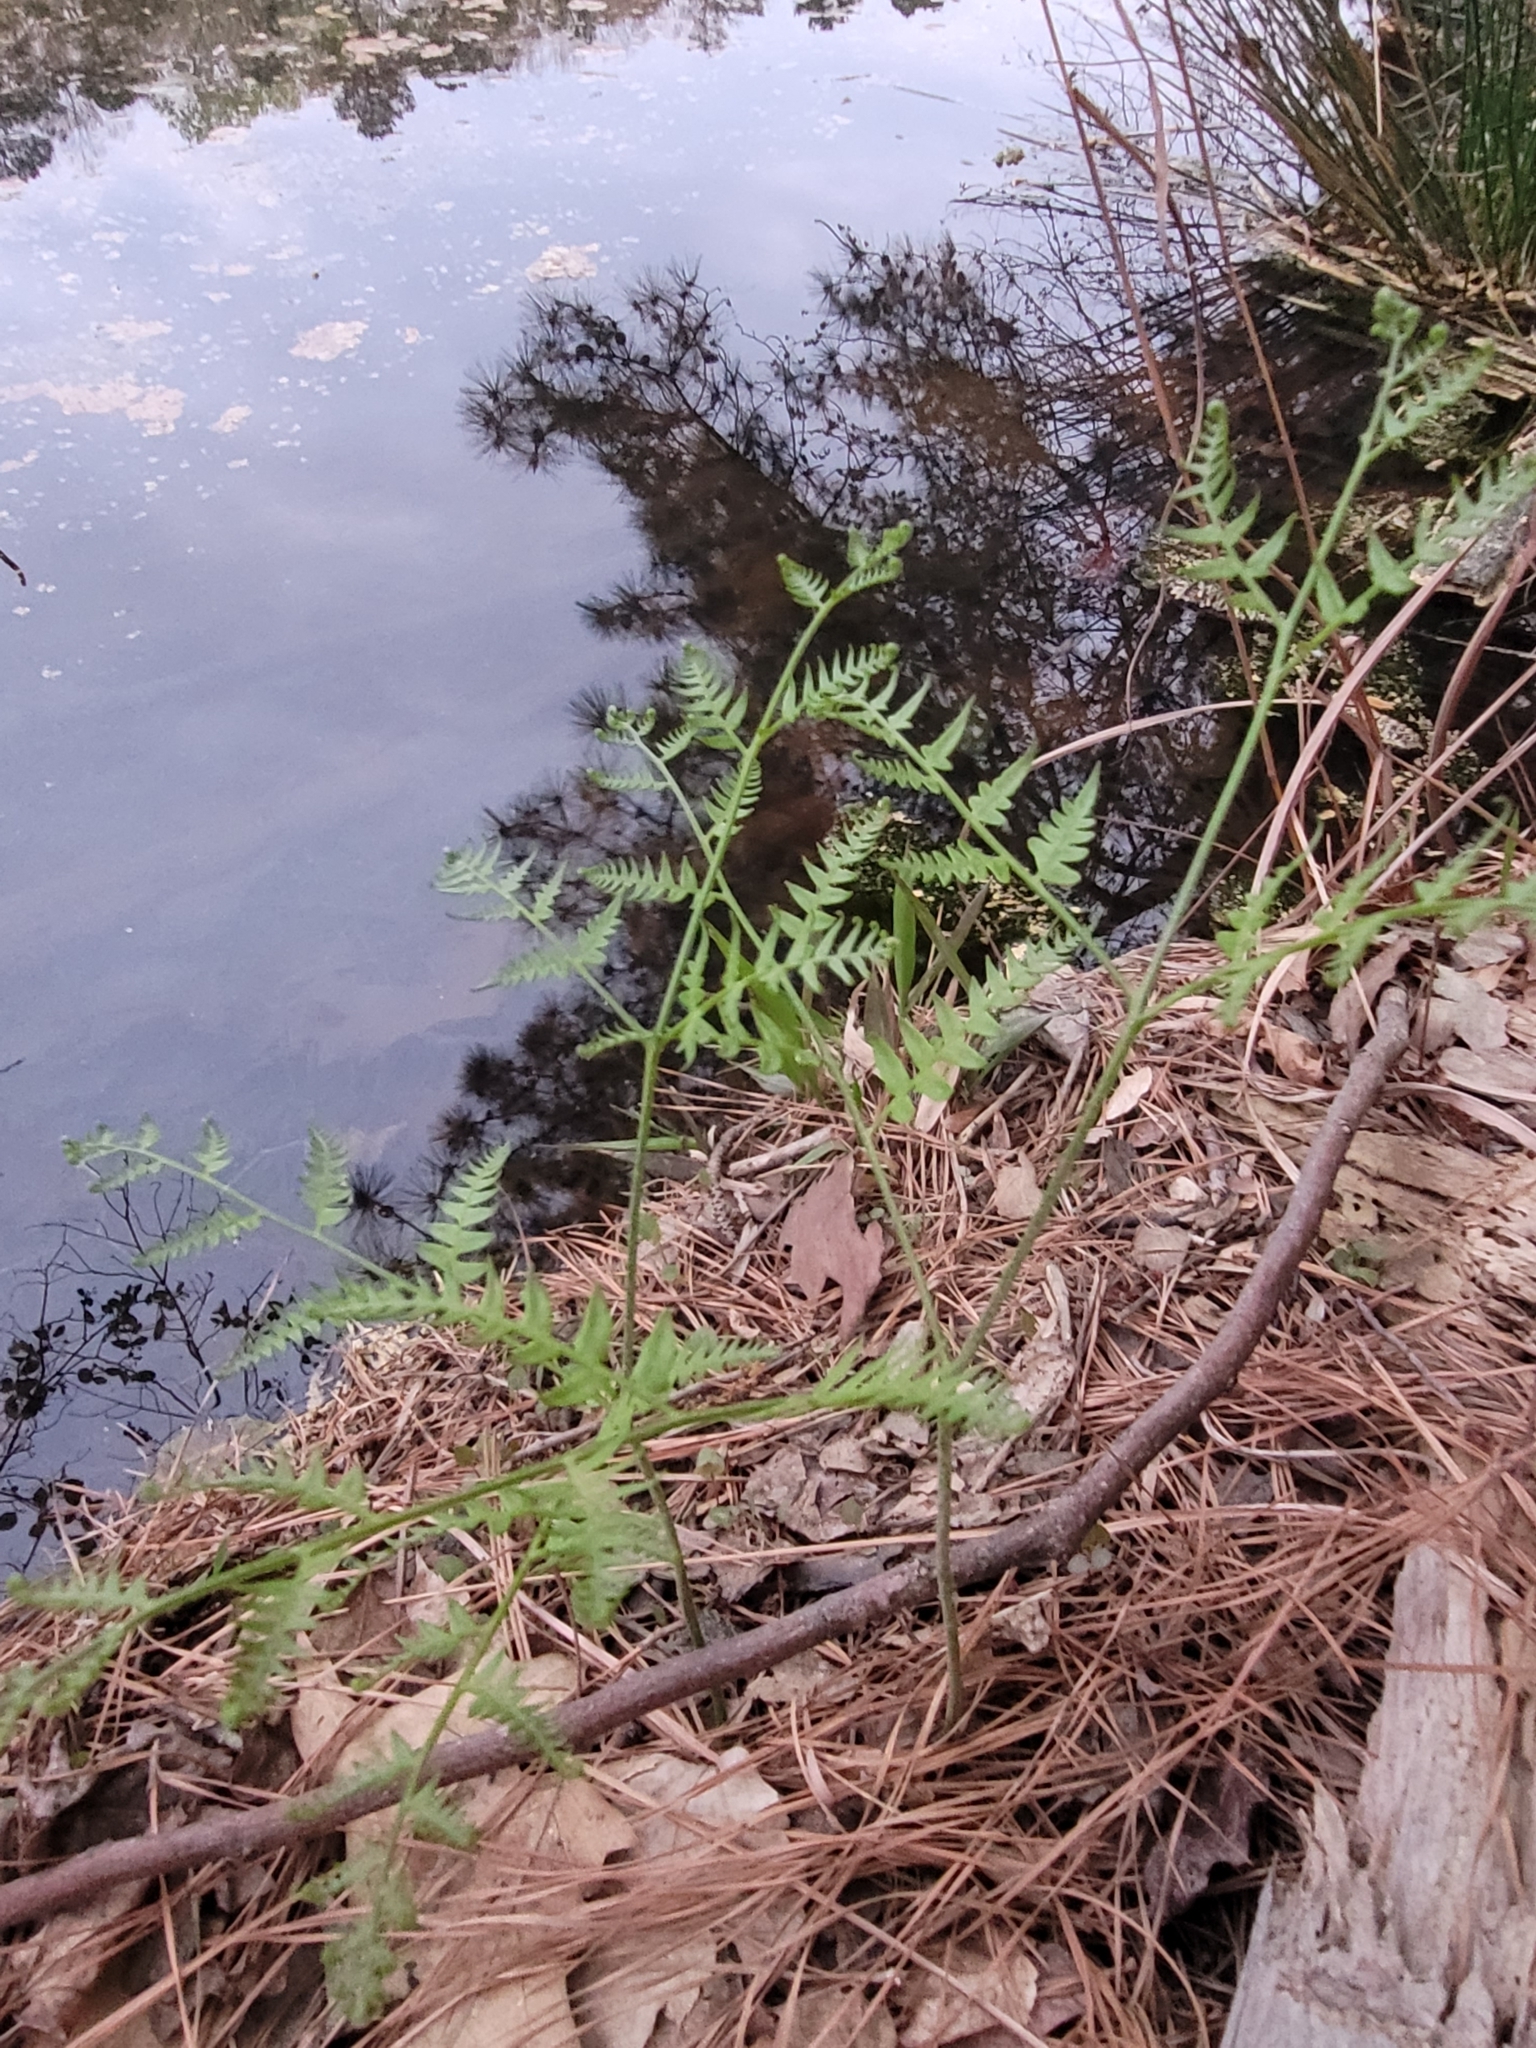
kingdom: Plantae
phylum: Tracheophyta
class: Polypodiopsida
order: Polypodiales
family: Dennstaedtiaceae
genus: Pteridium
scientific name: Pteridium aquilinum
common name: Bracken
